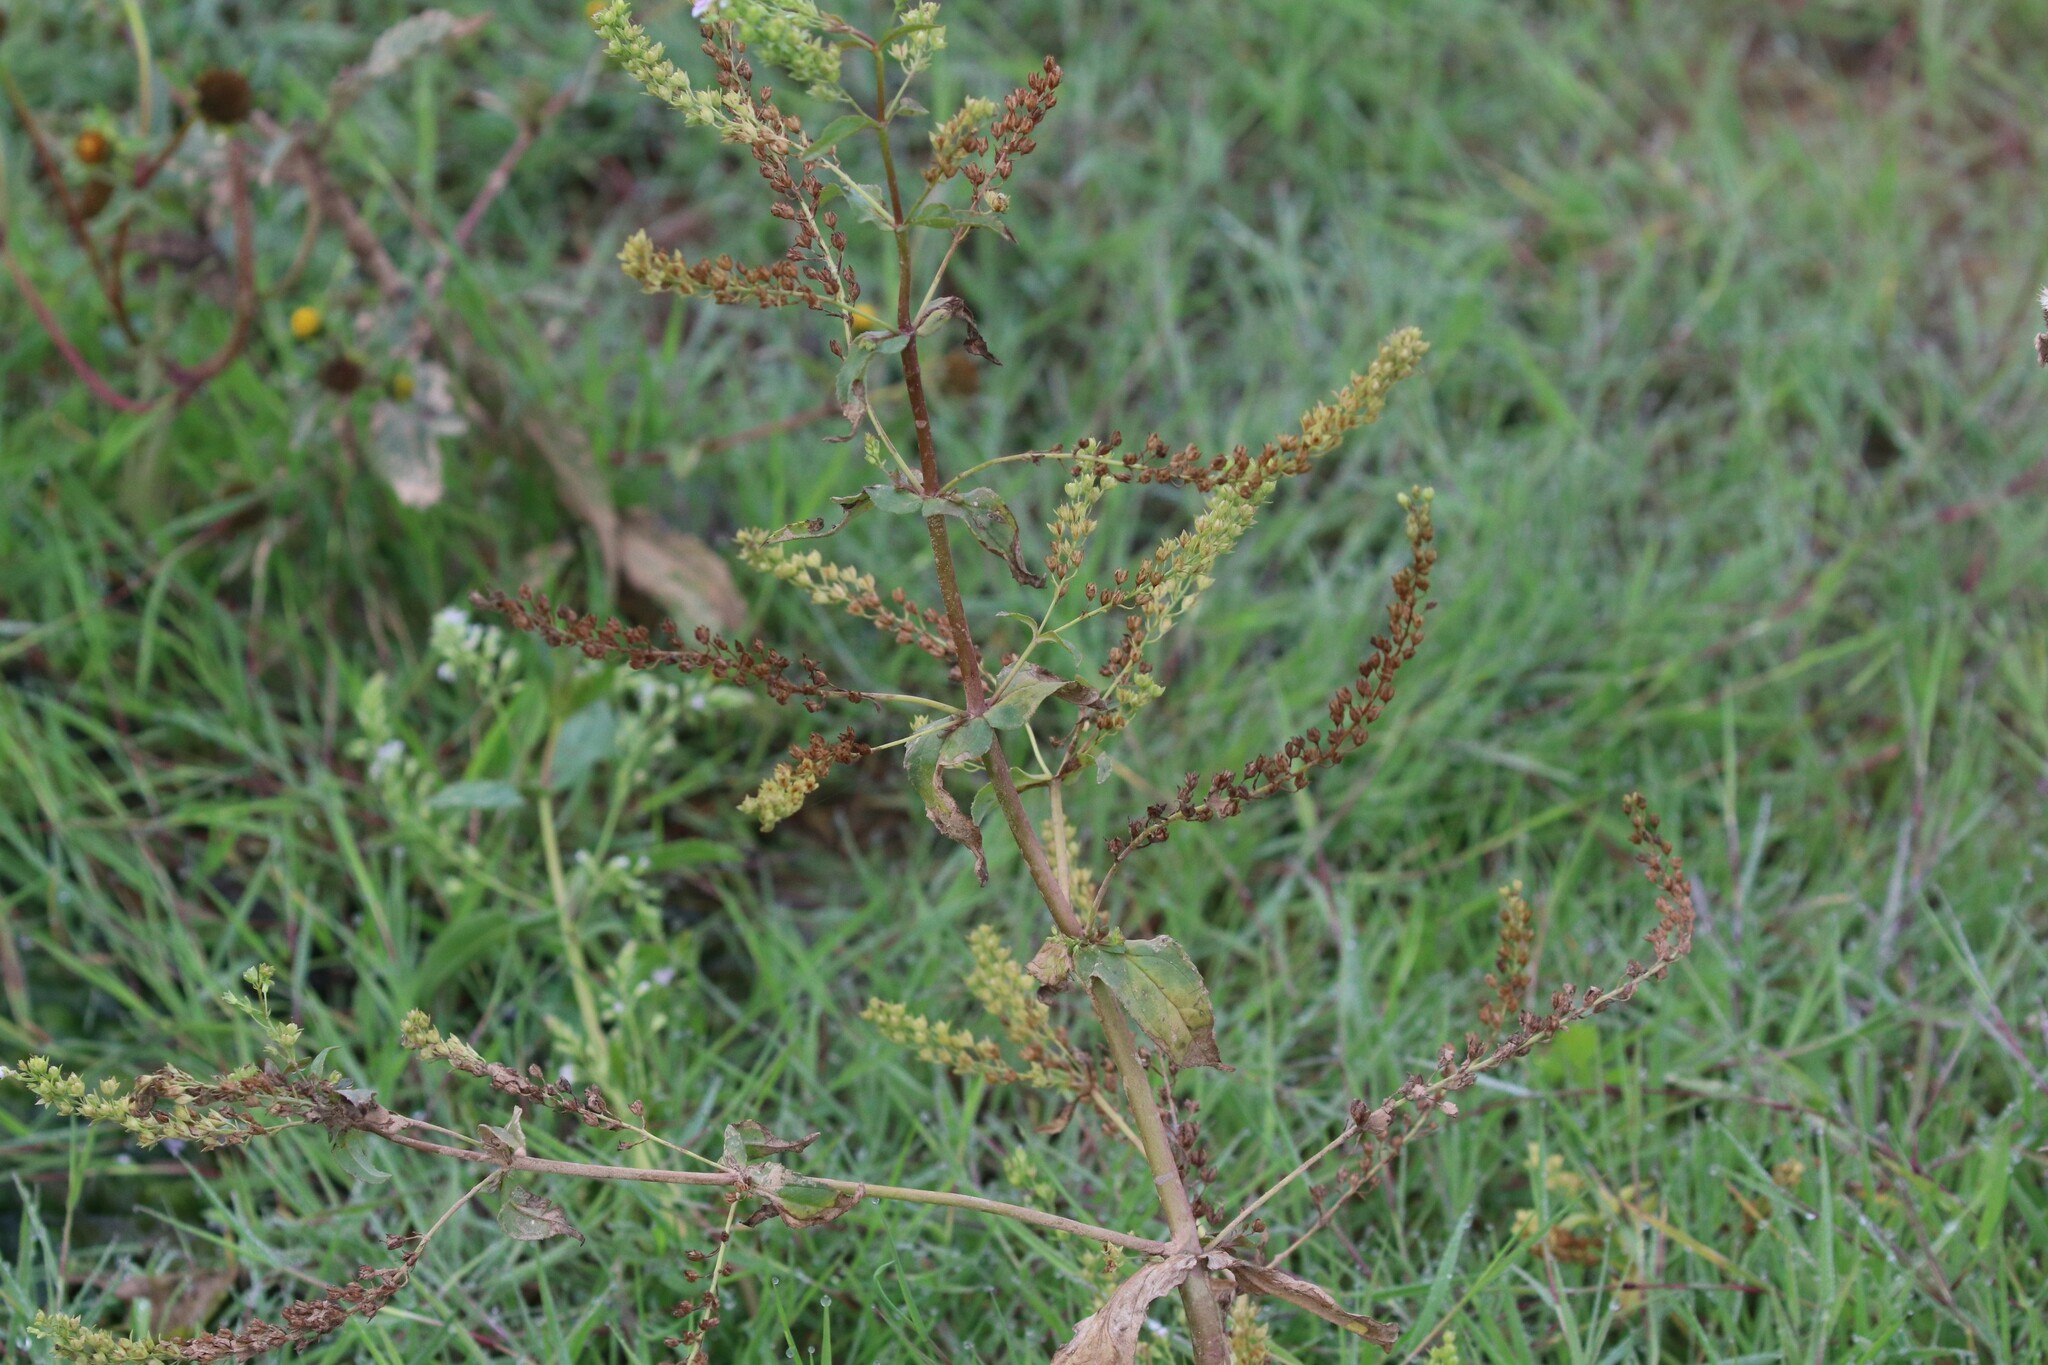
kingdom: Plantae
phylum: Tracheophyta
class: Magnoliopsida
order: Lamiales
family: Plantaginaceae
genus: Veronica
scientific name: Veronica anagallis-aquatica
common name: Water speedwell
